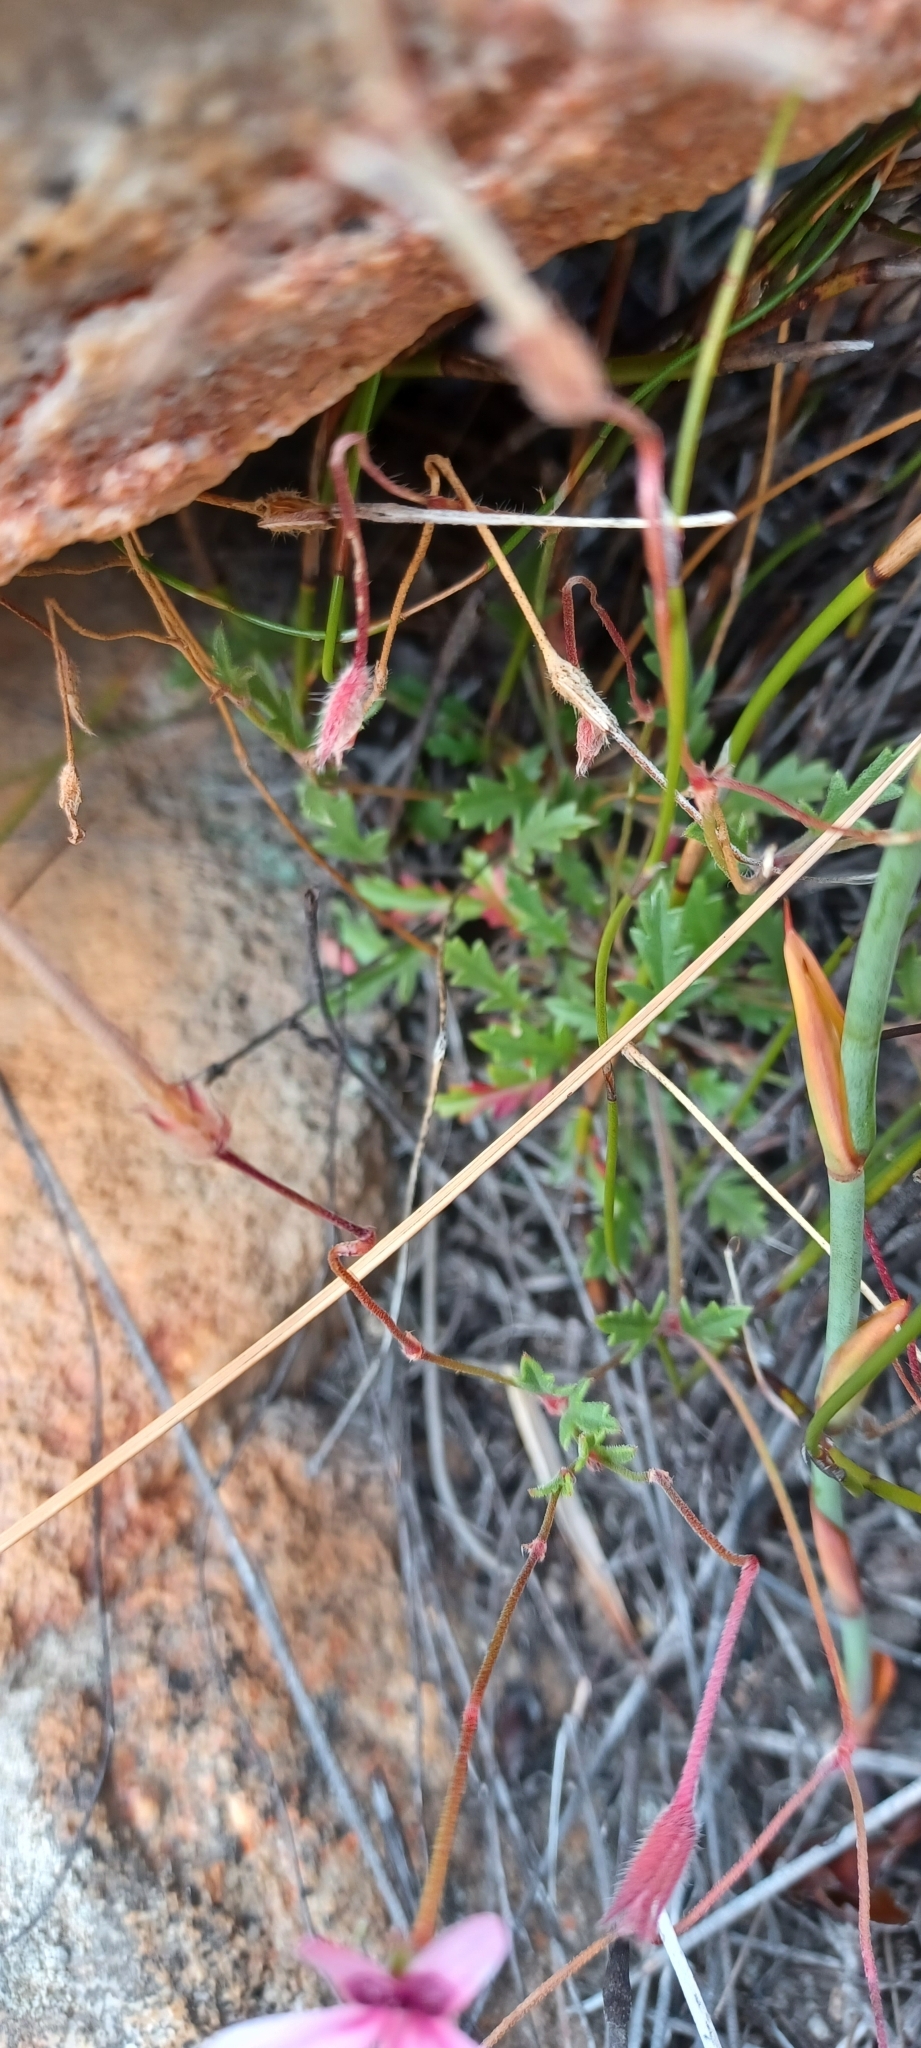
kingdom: Plantae
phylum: Tracheophyta
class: Magnoliopsida
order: Geraniales
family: Geraniaceae
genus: Pelargonium
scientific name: Pelargonium capillare
